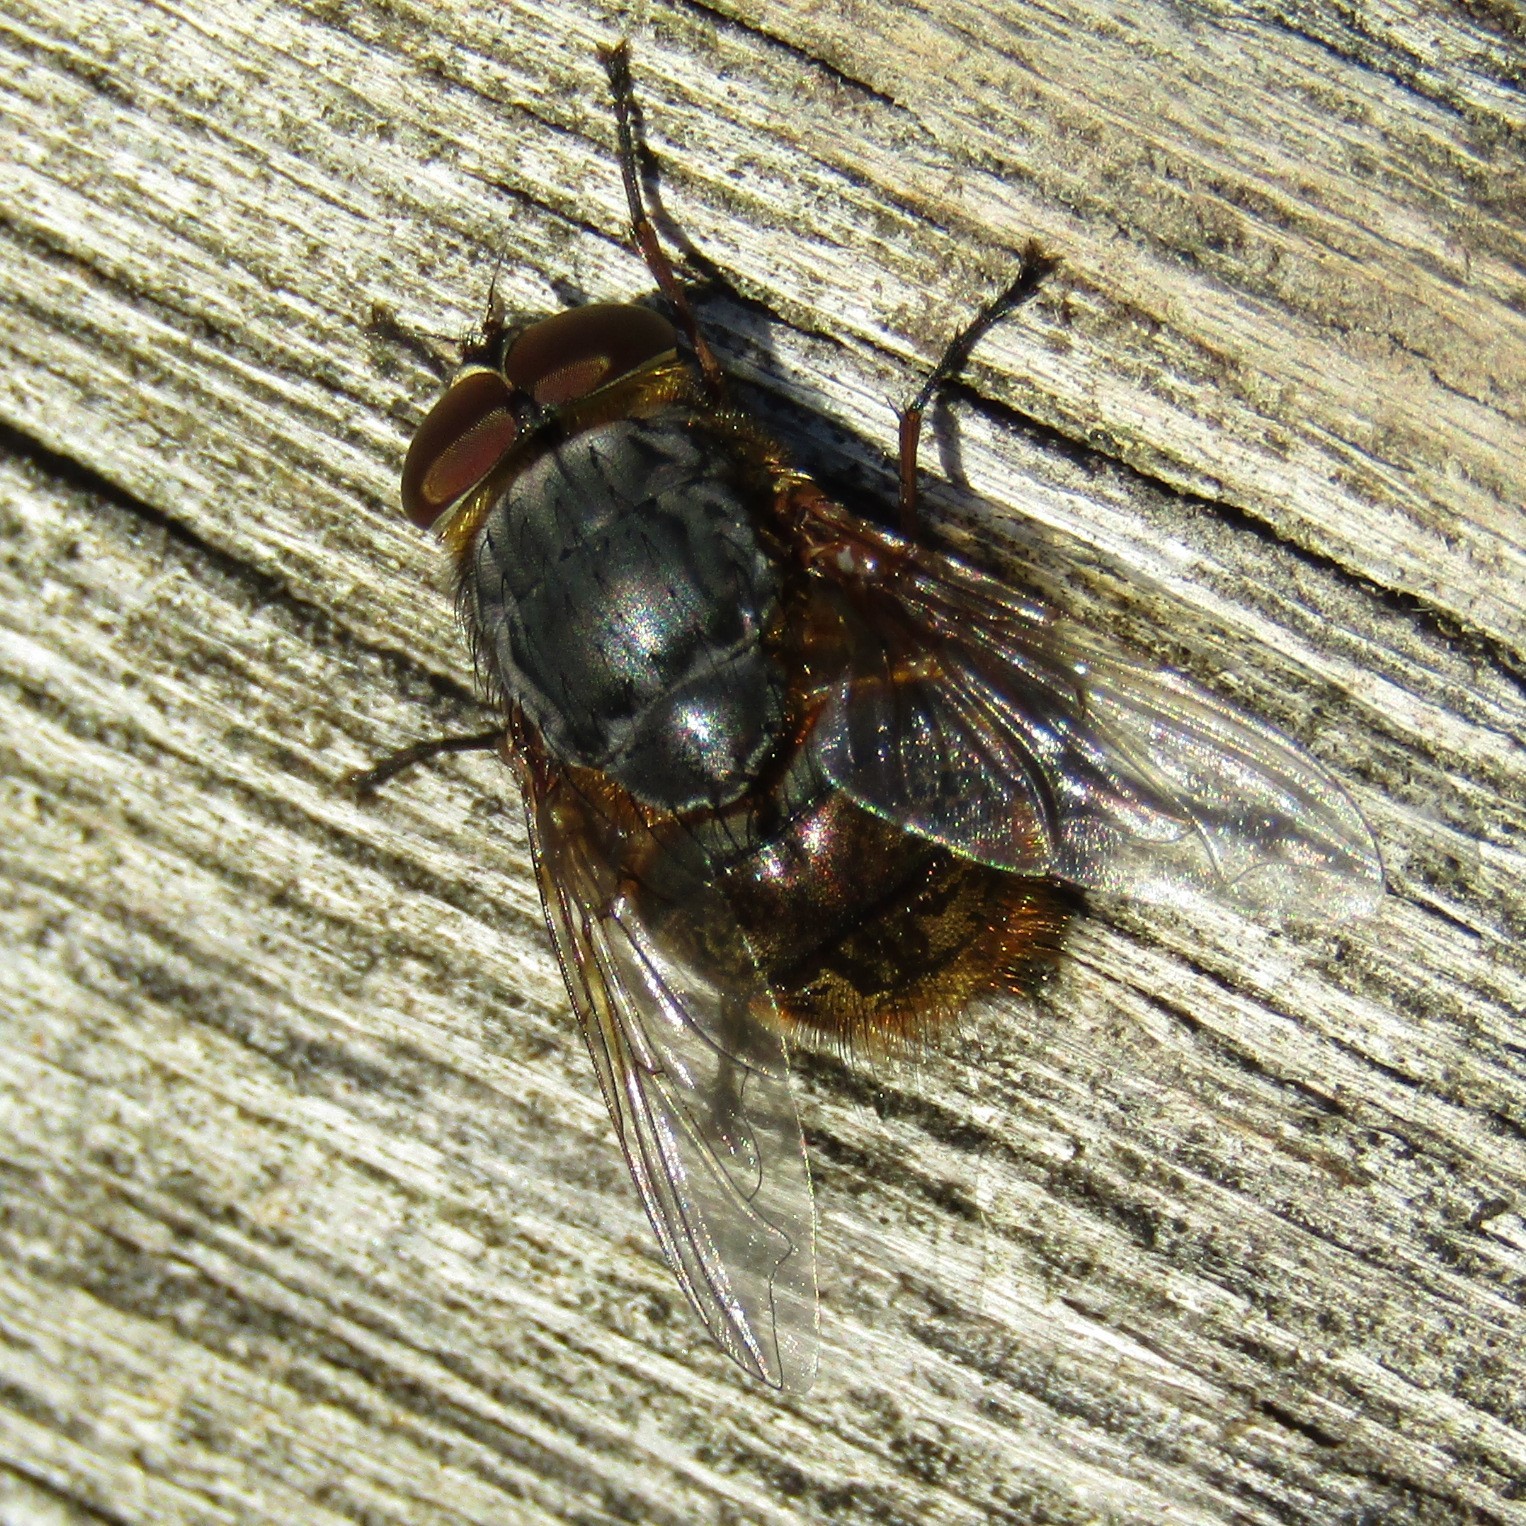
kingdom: Animalia
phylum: Arthropoda
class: Insecta
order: Diptera
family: Calliphoridae
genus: Calliphora
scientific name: Calliphora stygia
